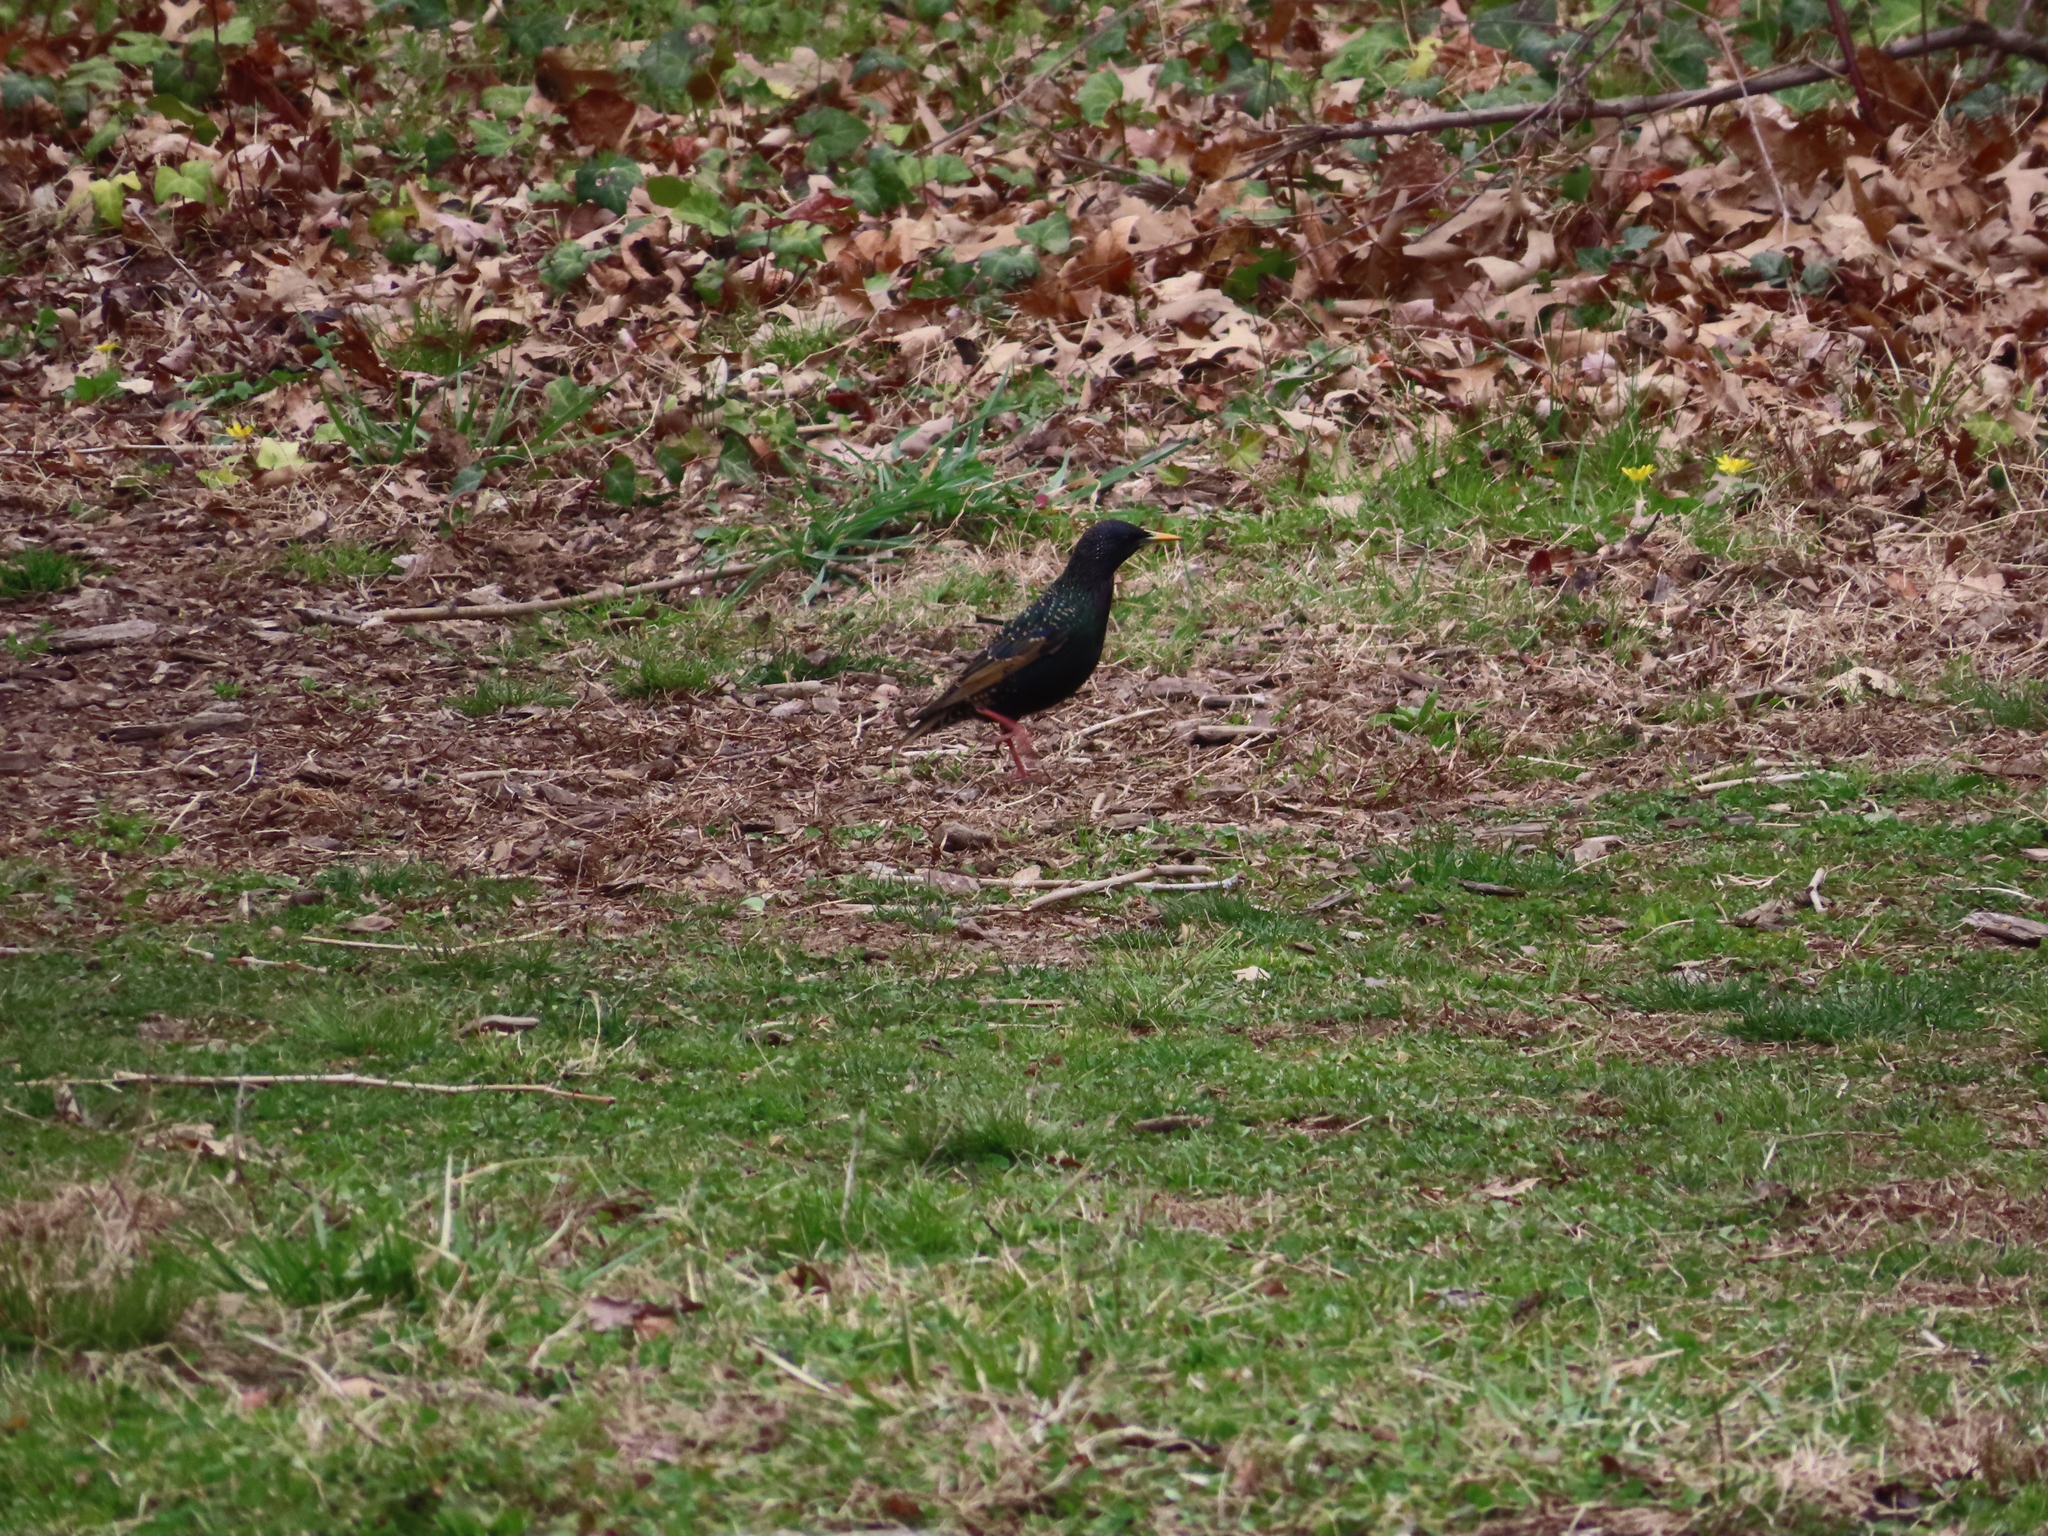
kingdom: Animalia
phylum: Chordata
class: Aves
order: Passeriformes
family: Sturnidae
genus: Sturnus
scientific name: Sturnus vulgaris
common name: Common starling
